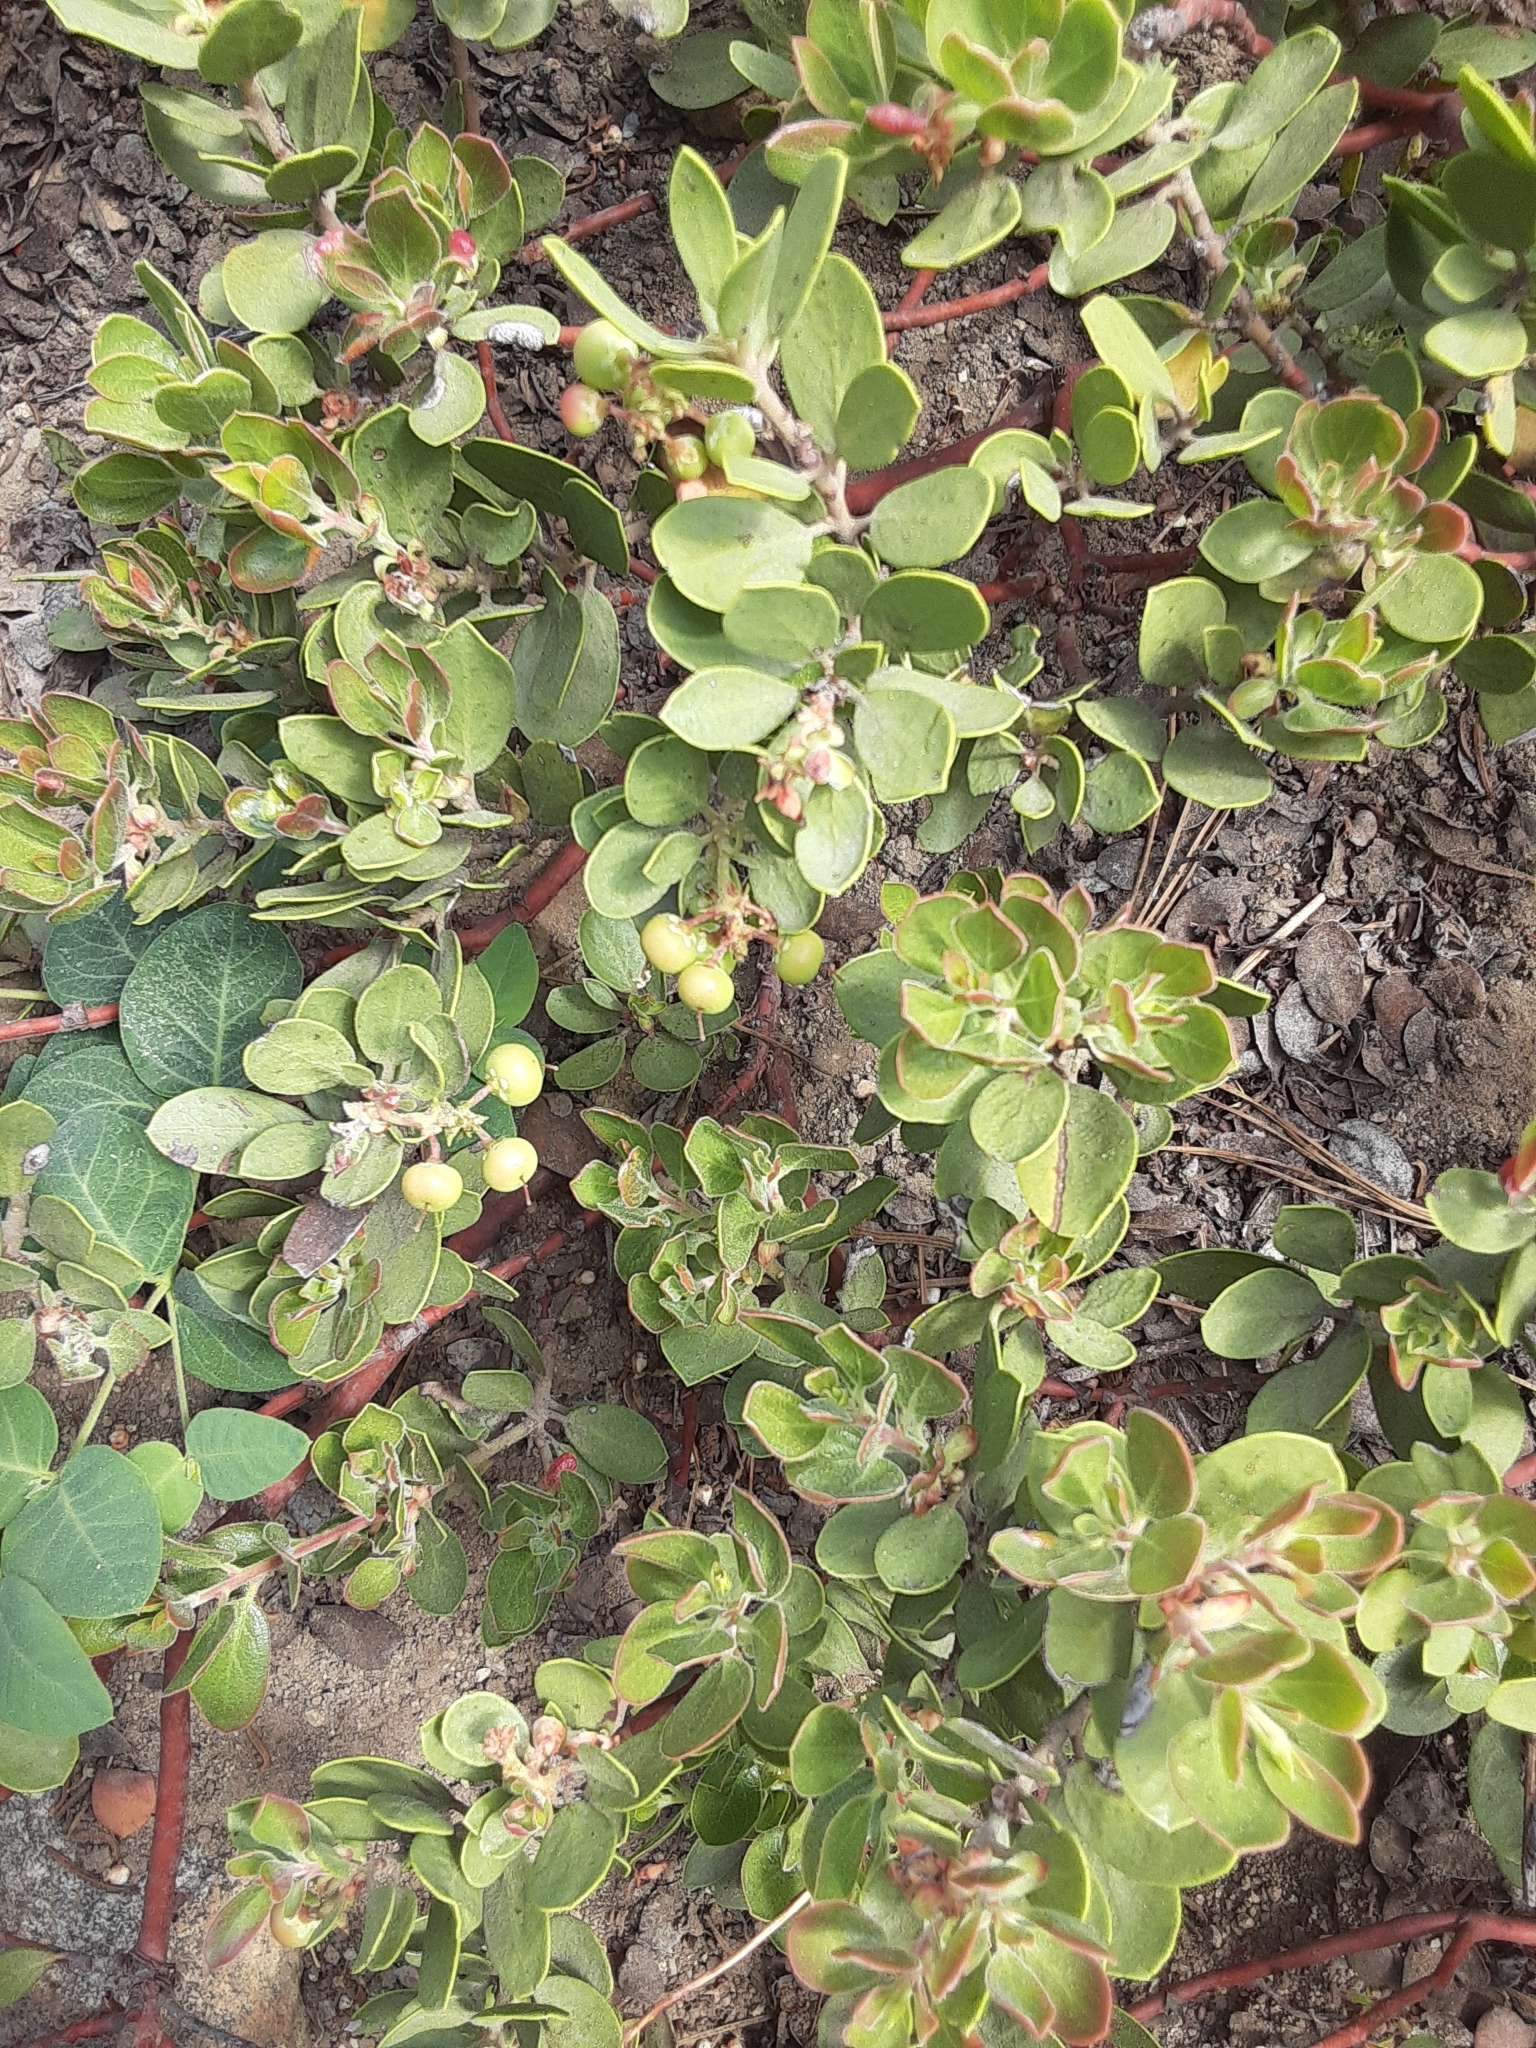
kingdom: Plantae
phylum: Tracheophyta
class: Magnoliopsida
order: Ericales
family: Ericaceae
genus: Arctostaphylos
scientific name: Arctostaphylos nevadensis
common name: Pinemat manzanita
